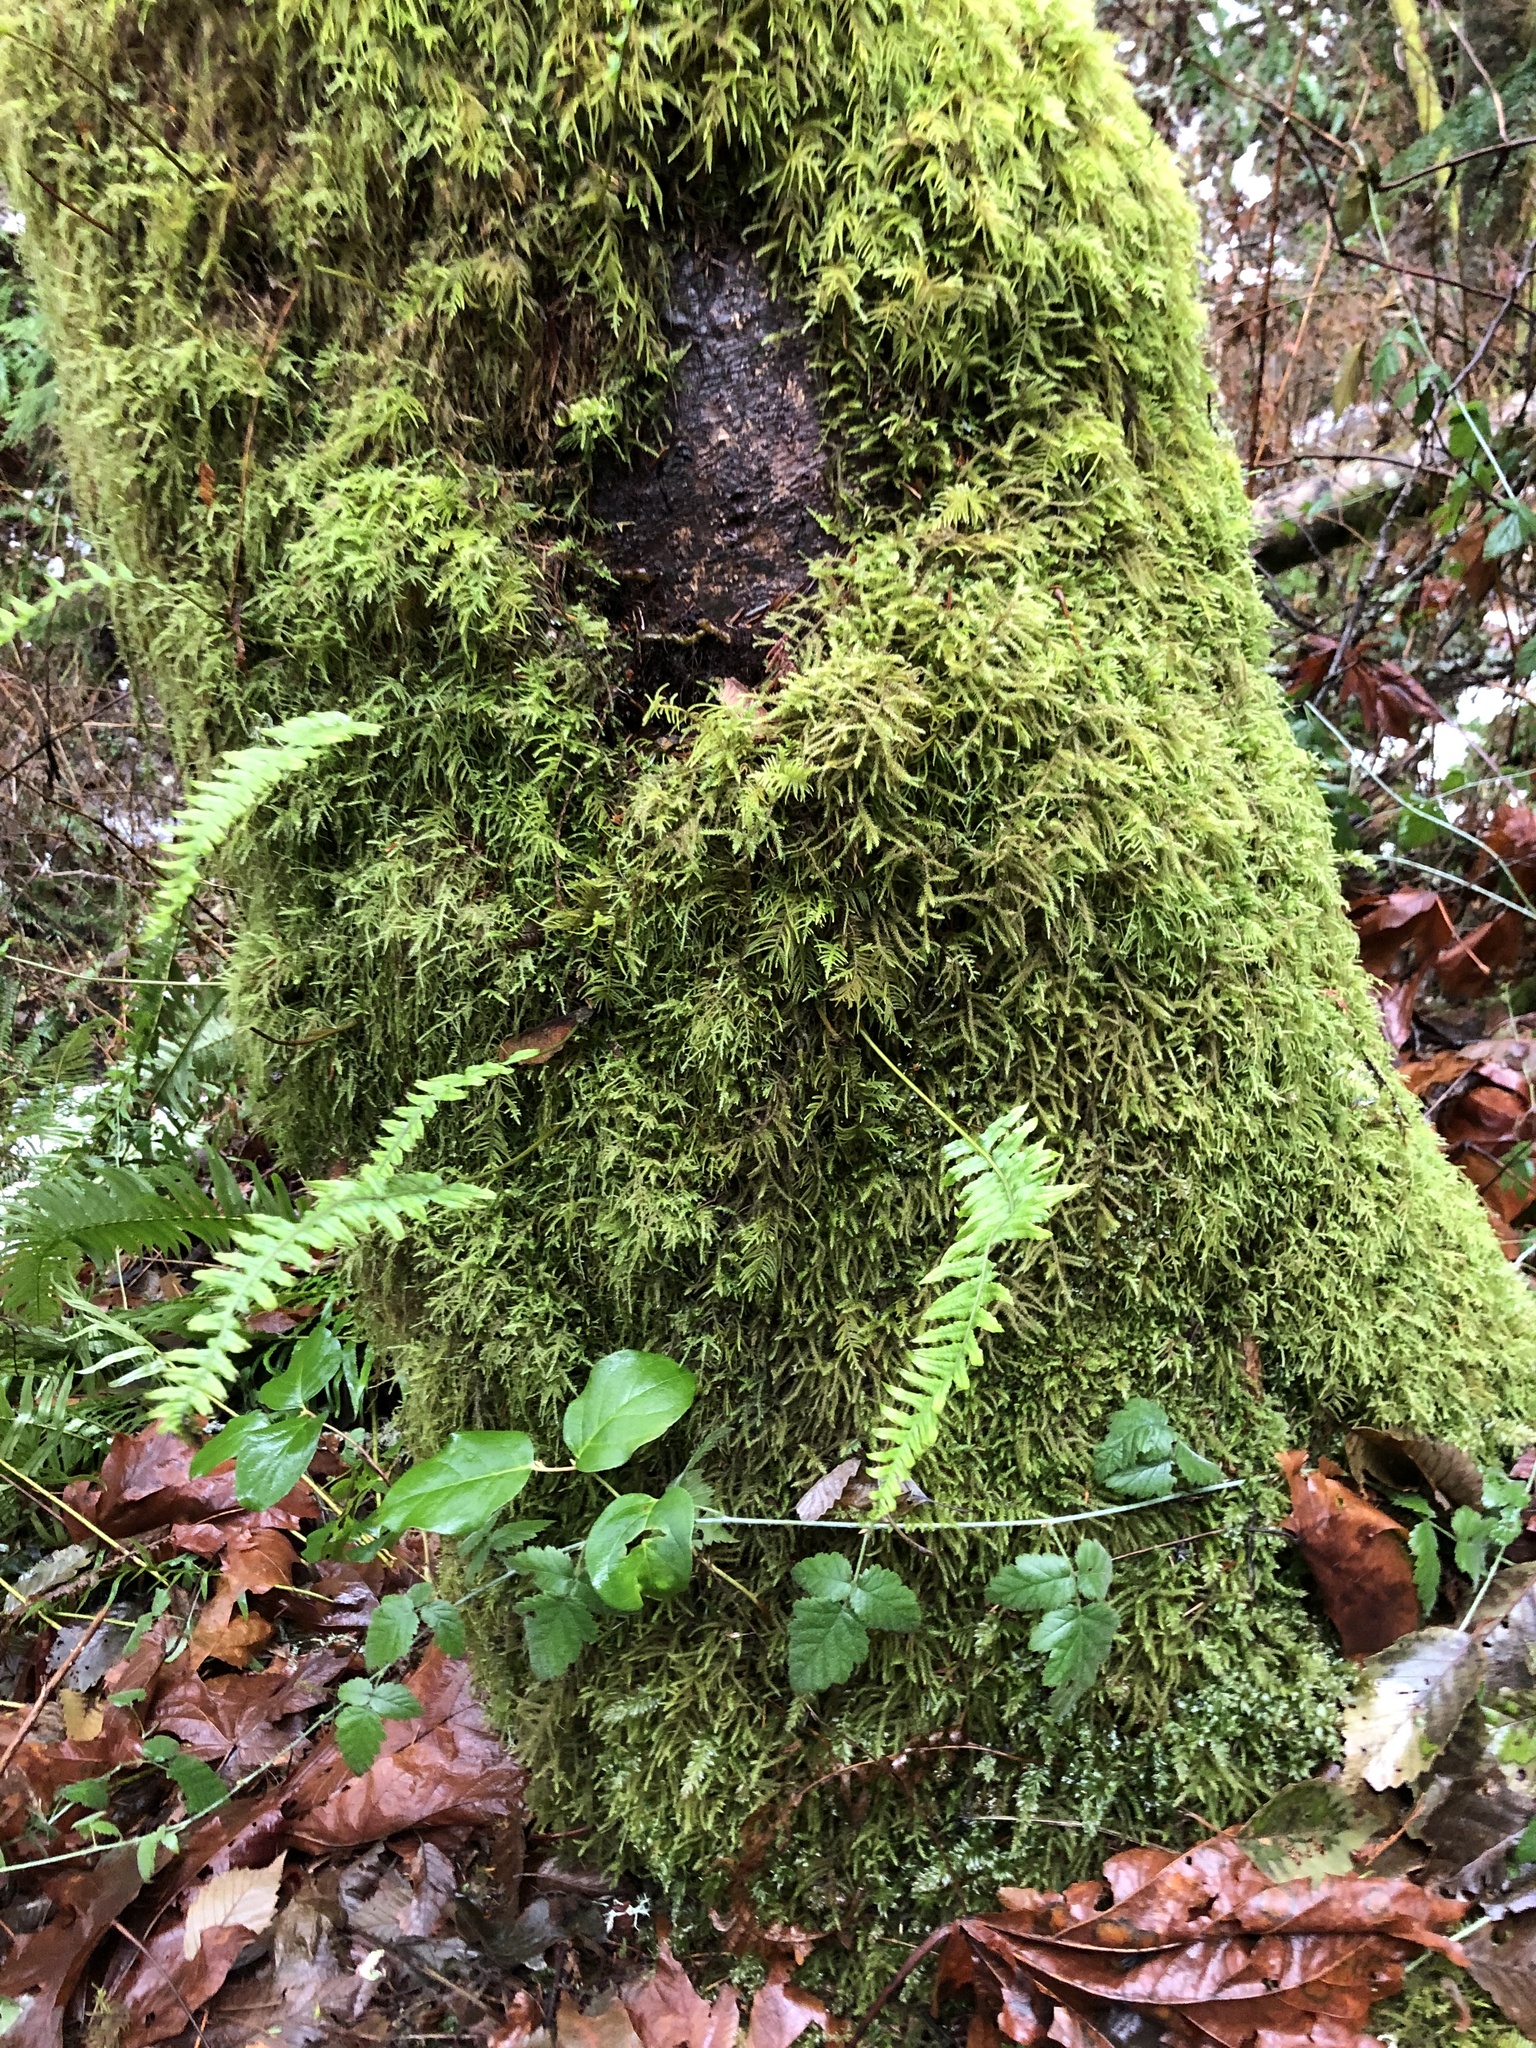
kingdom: Plantae
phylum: Tracheophyta
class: Polypodiopsida
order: Polypodiales
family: Polypodiaceae
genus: Polypodium
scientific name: Polypodium glycyrrhiza
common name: Licorice fern
